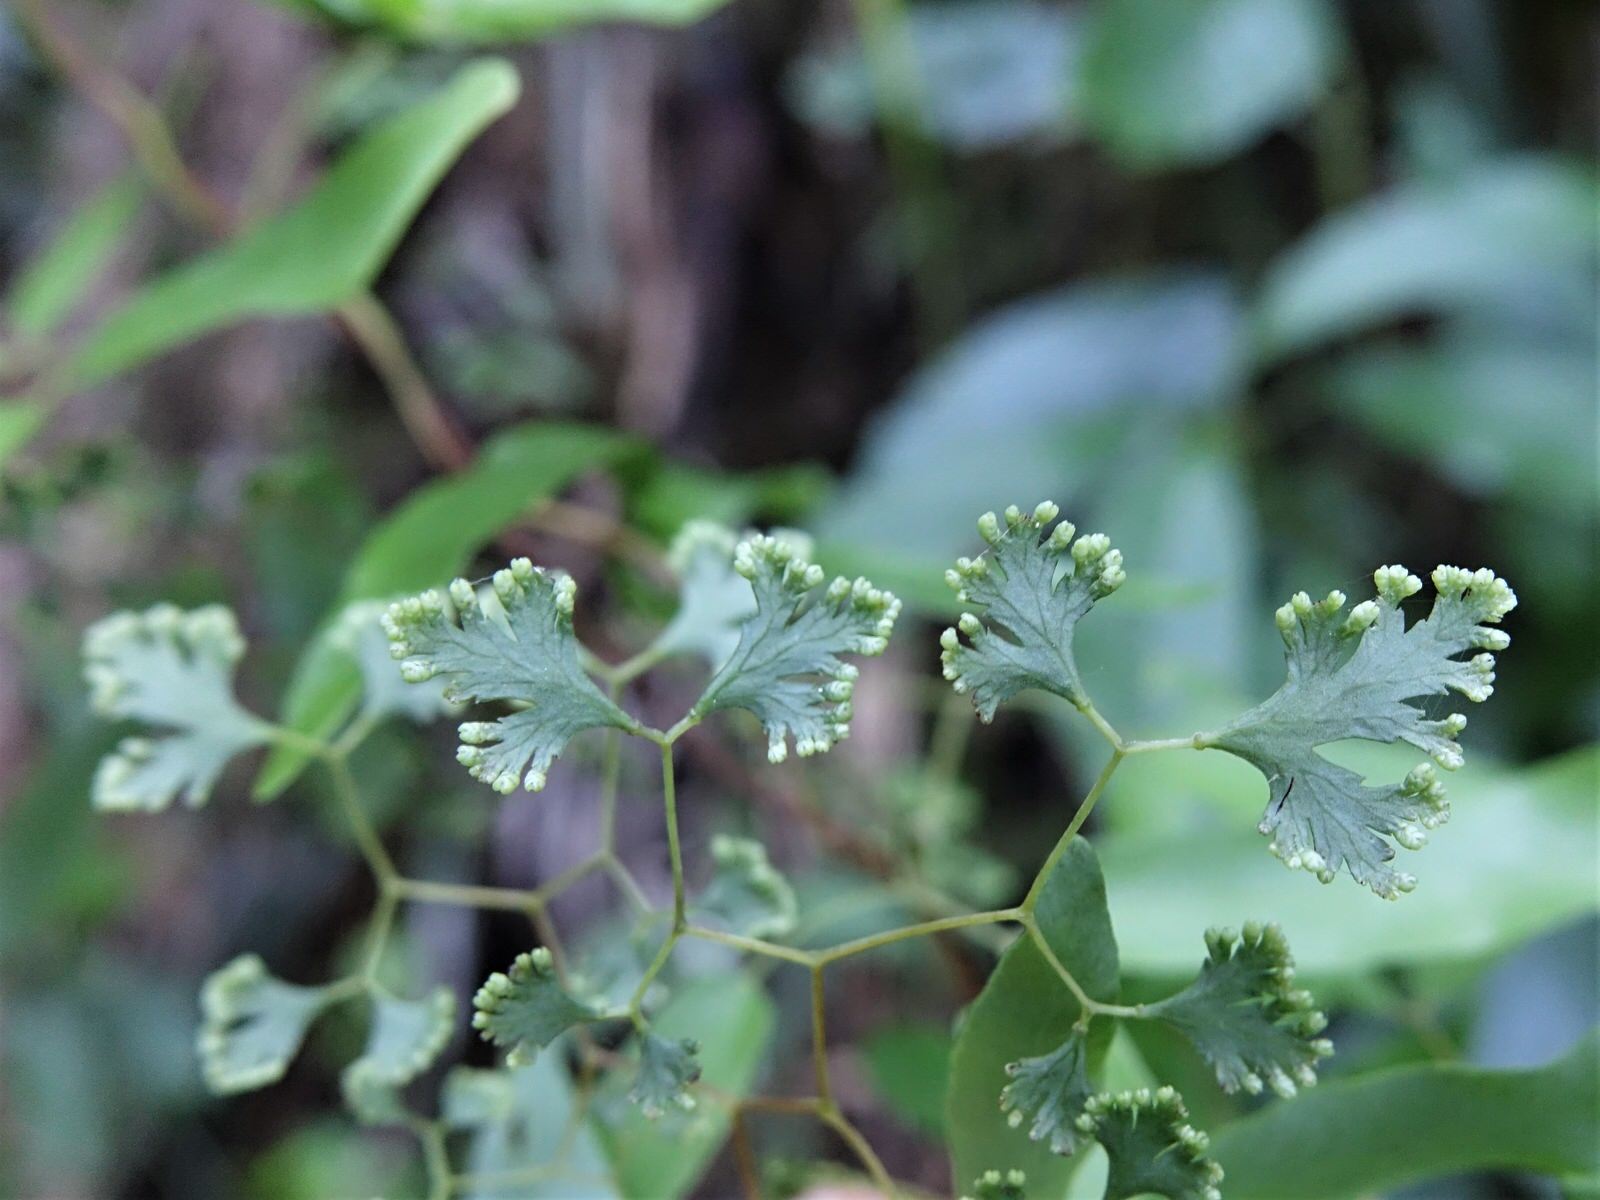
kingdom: Plantae
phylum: Tracheophyta
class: Polypodiopsida
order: Schizaeales
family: Lygodiaceae
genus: Lygodium
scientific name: Lygodium articulatum
